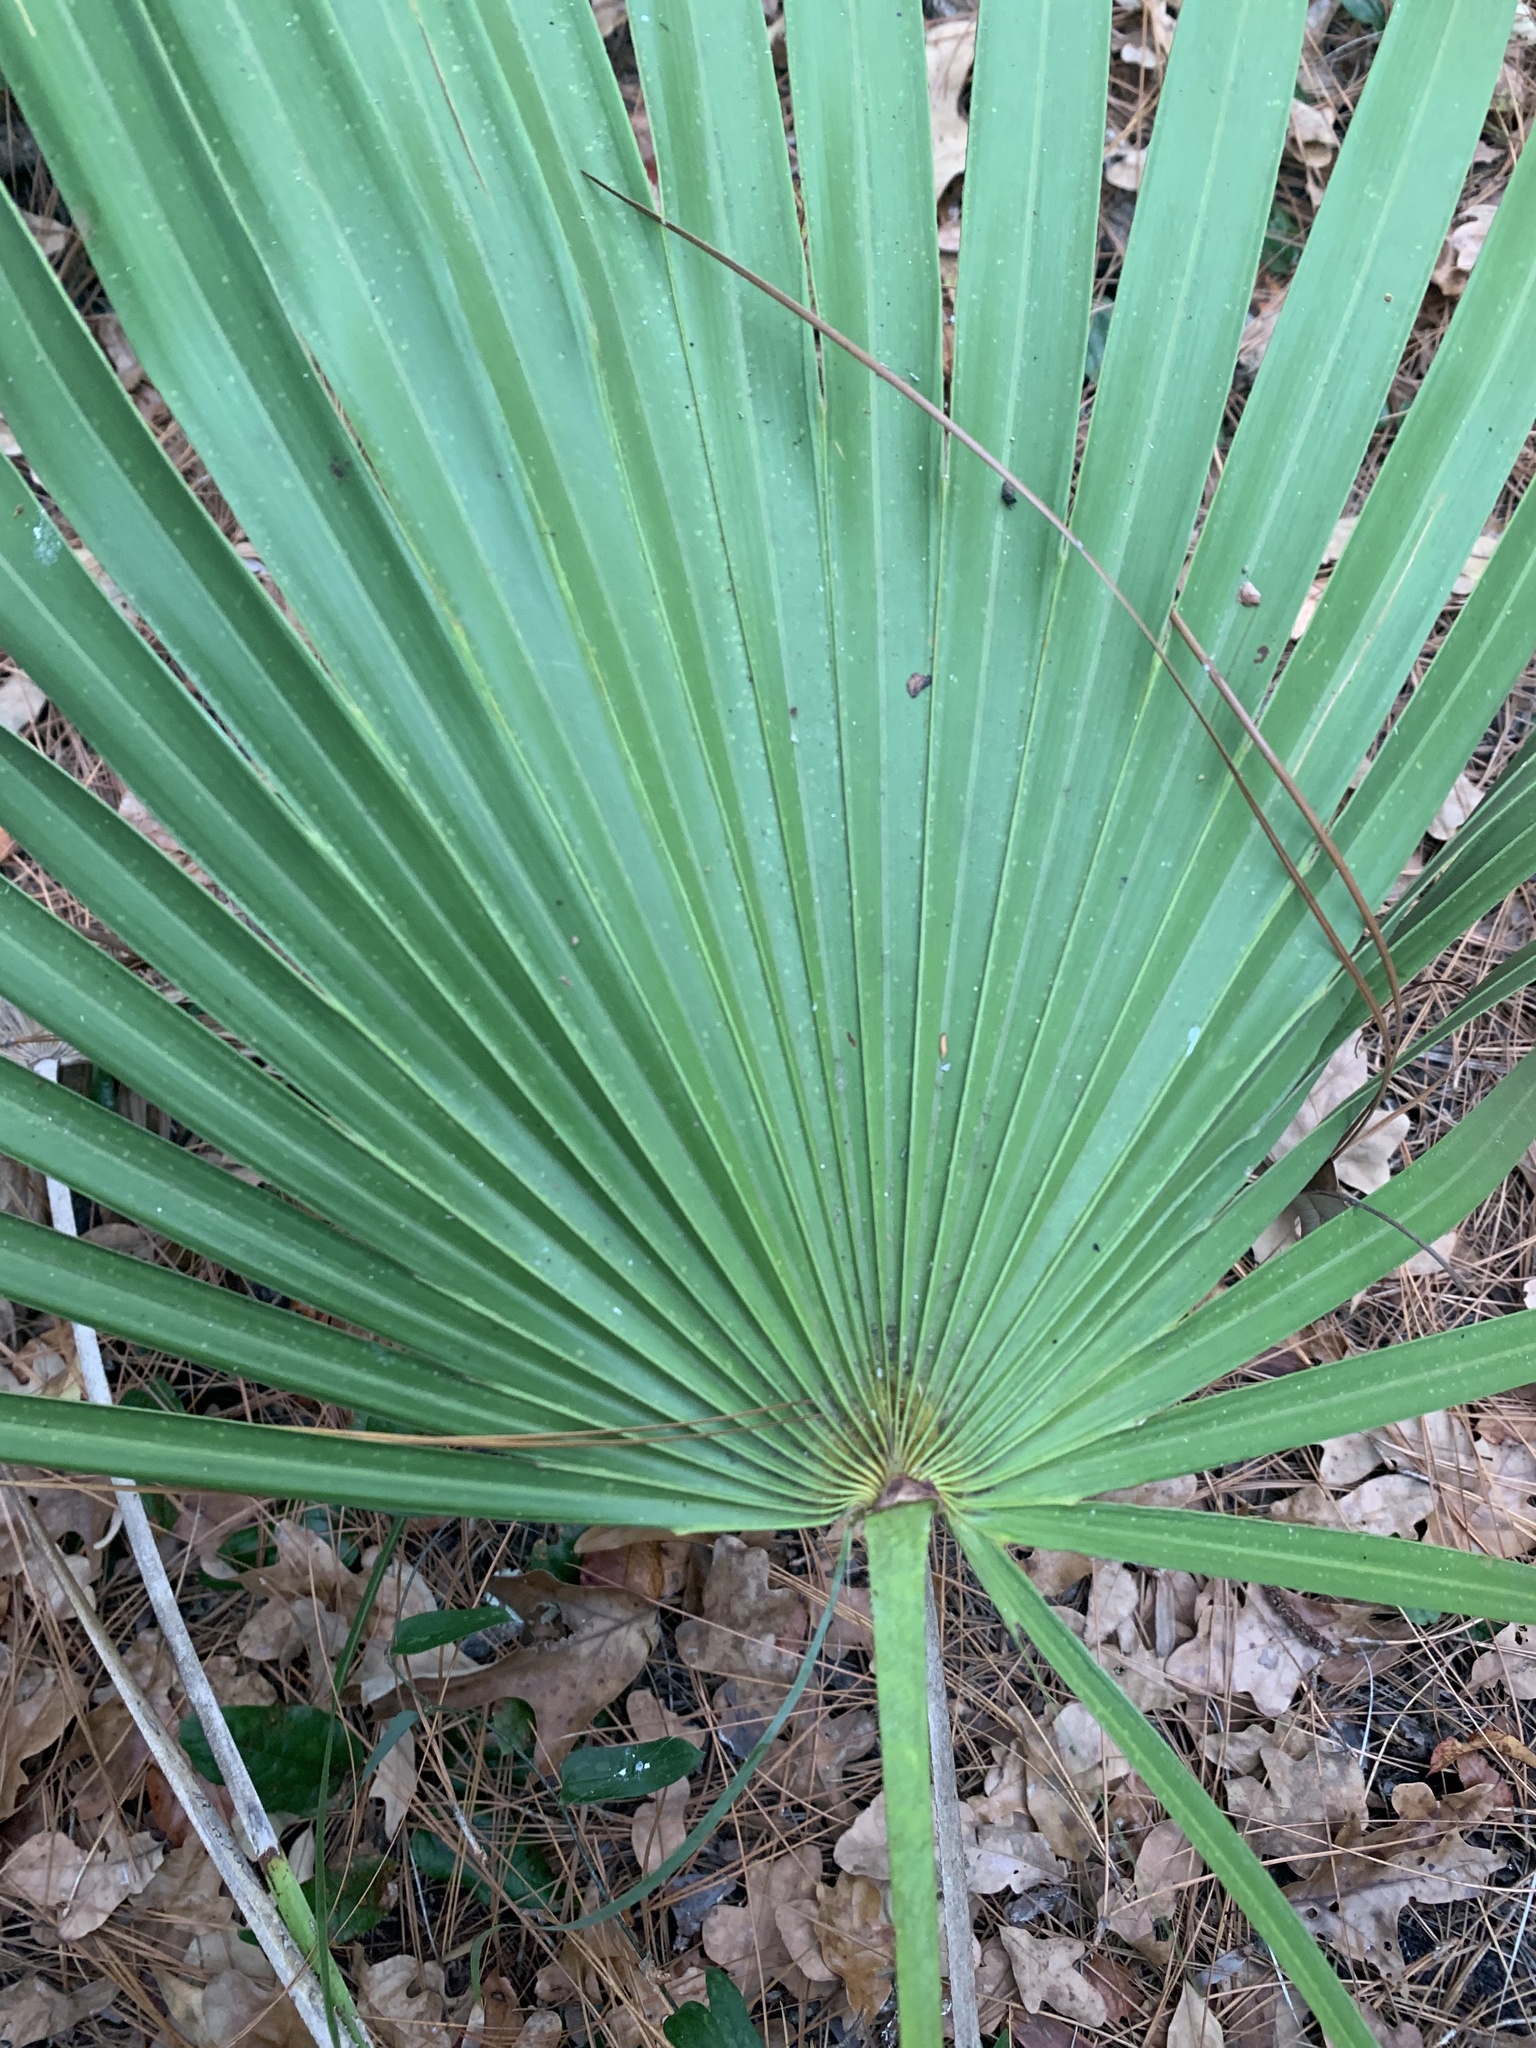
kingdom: Plantae
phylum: Tracheophyta
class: Liliopsida
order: Arecales
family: Arecaceae
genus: Serenoa
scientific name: Serenoa repens
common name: Saw-palmetto
